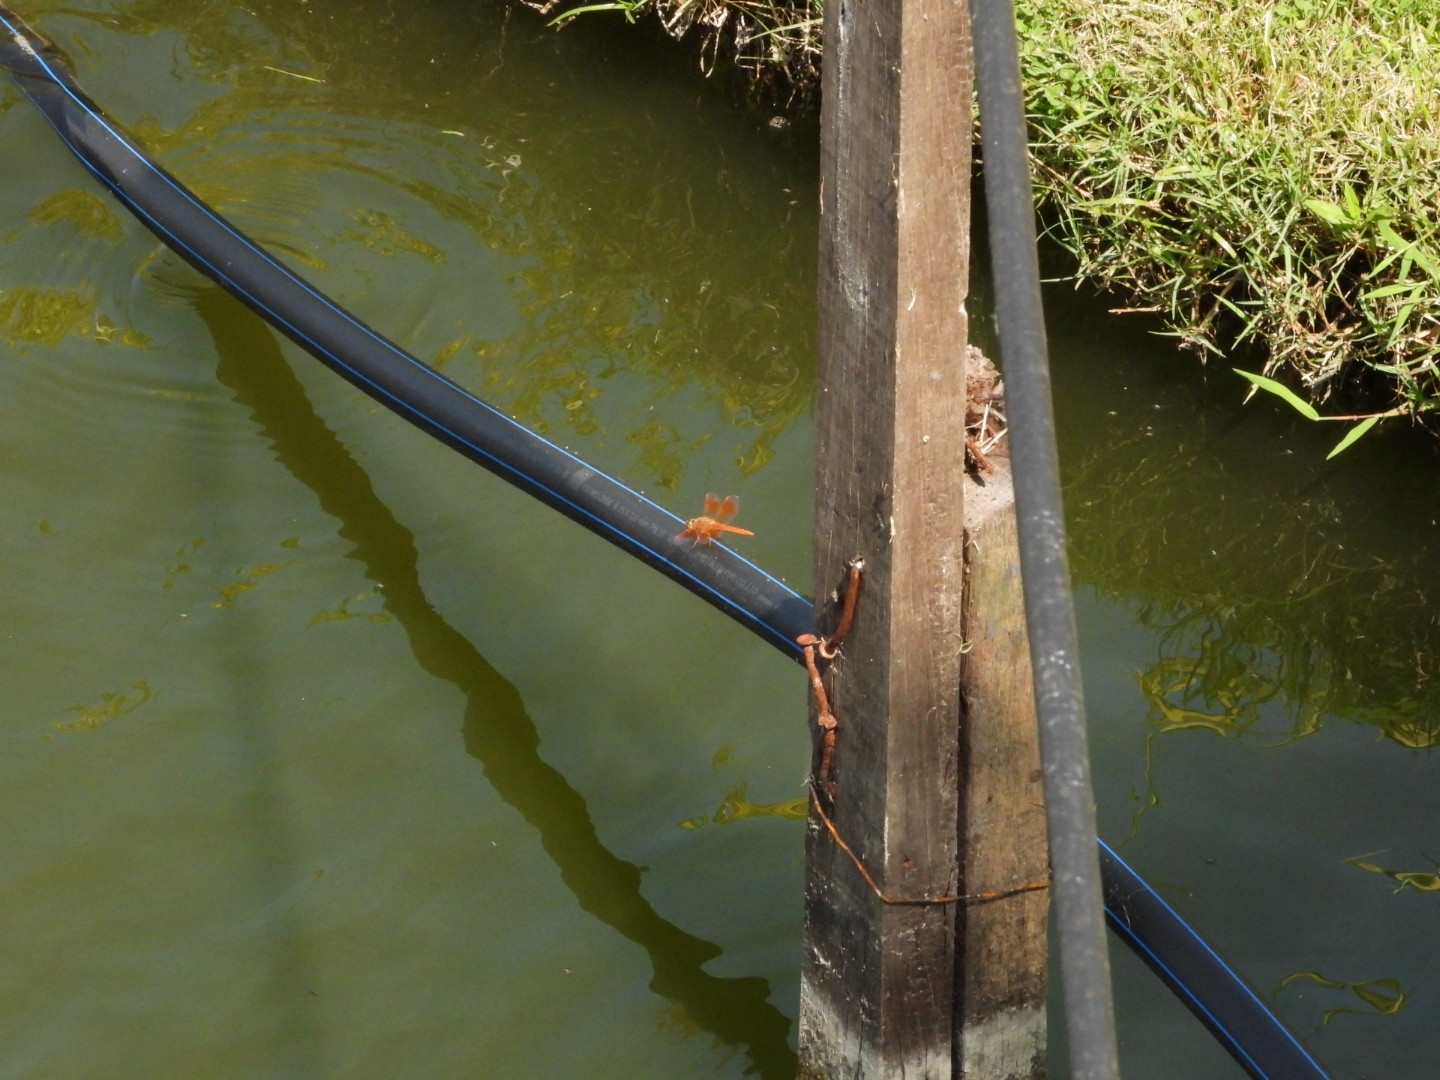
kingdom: Animalia
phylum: Arthropoda
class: Insecta
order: Odonata
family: Libellulidae
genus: Brachythemis
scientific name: Brachythemis contaminata
